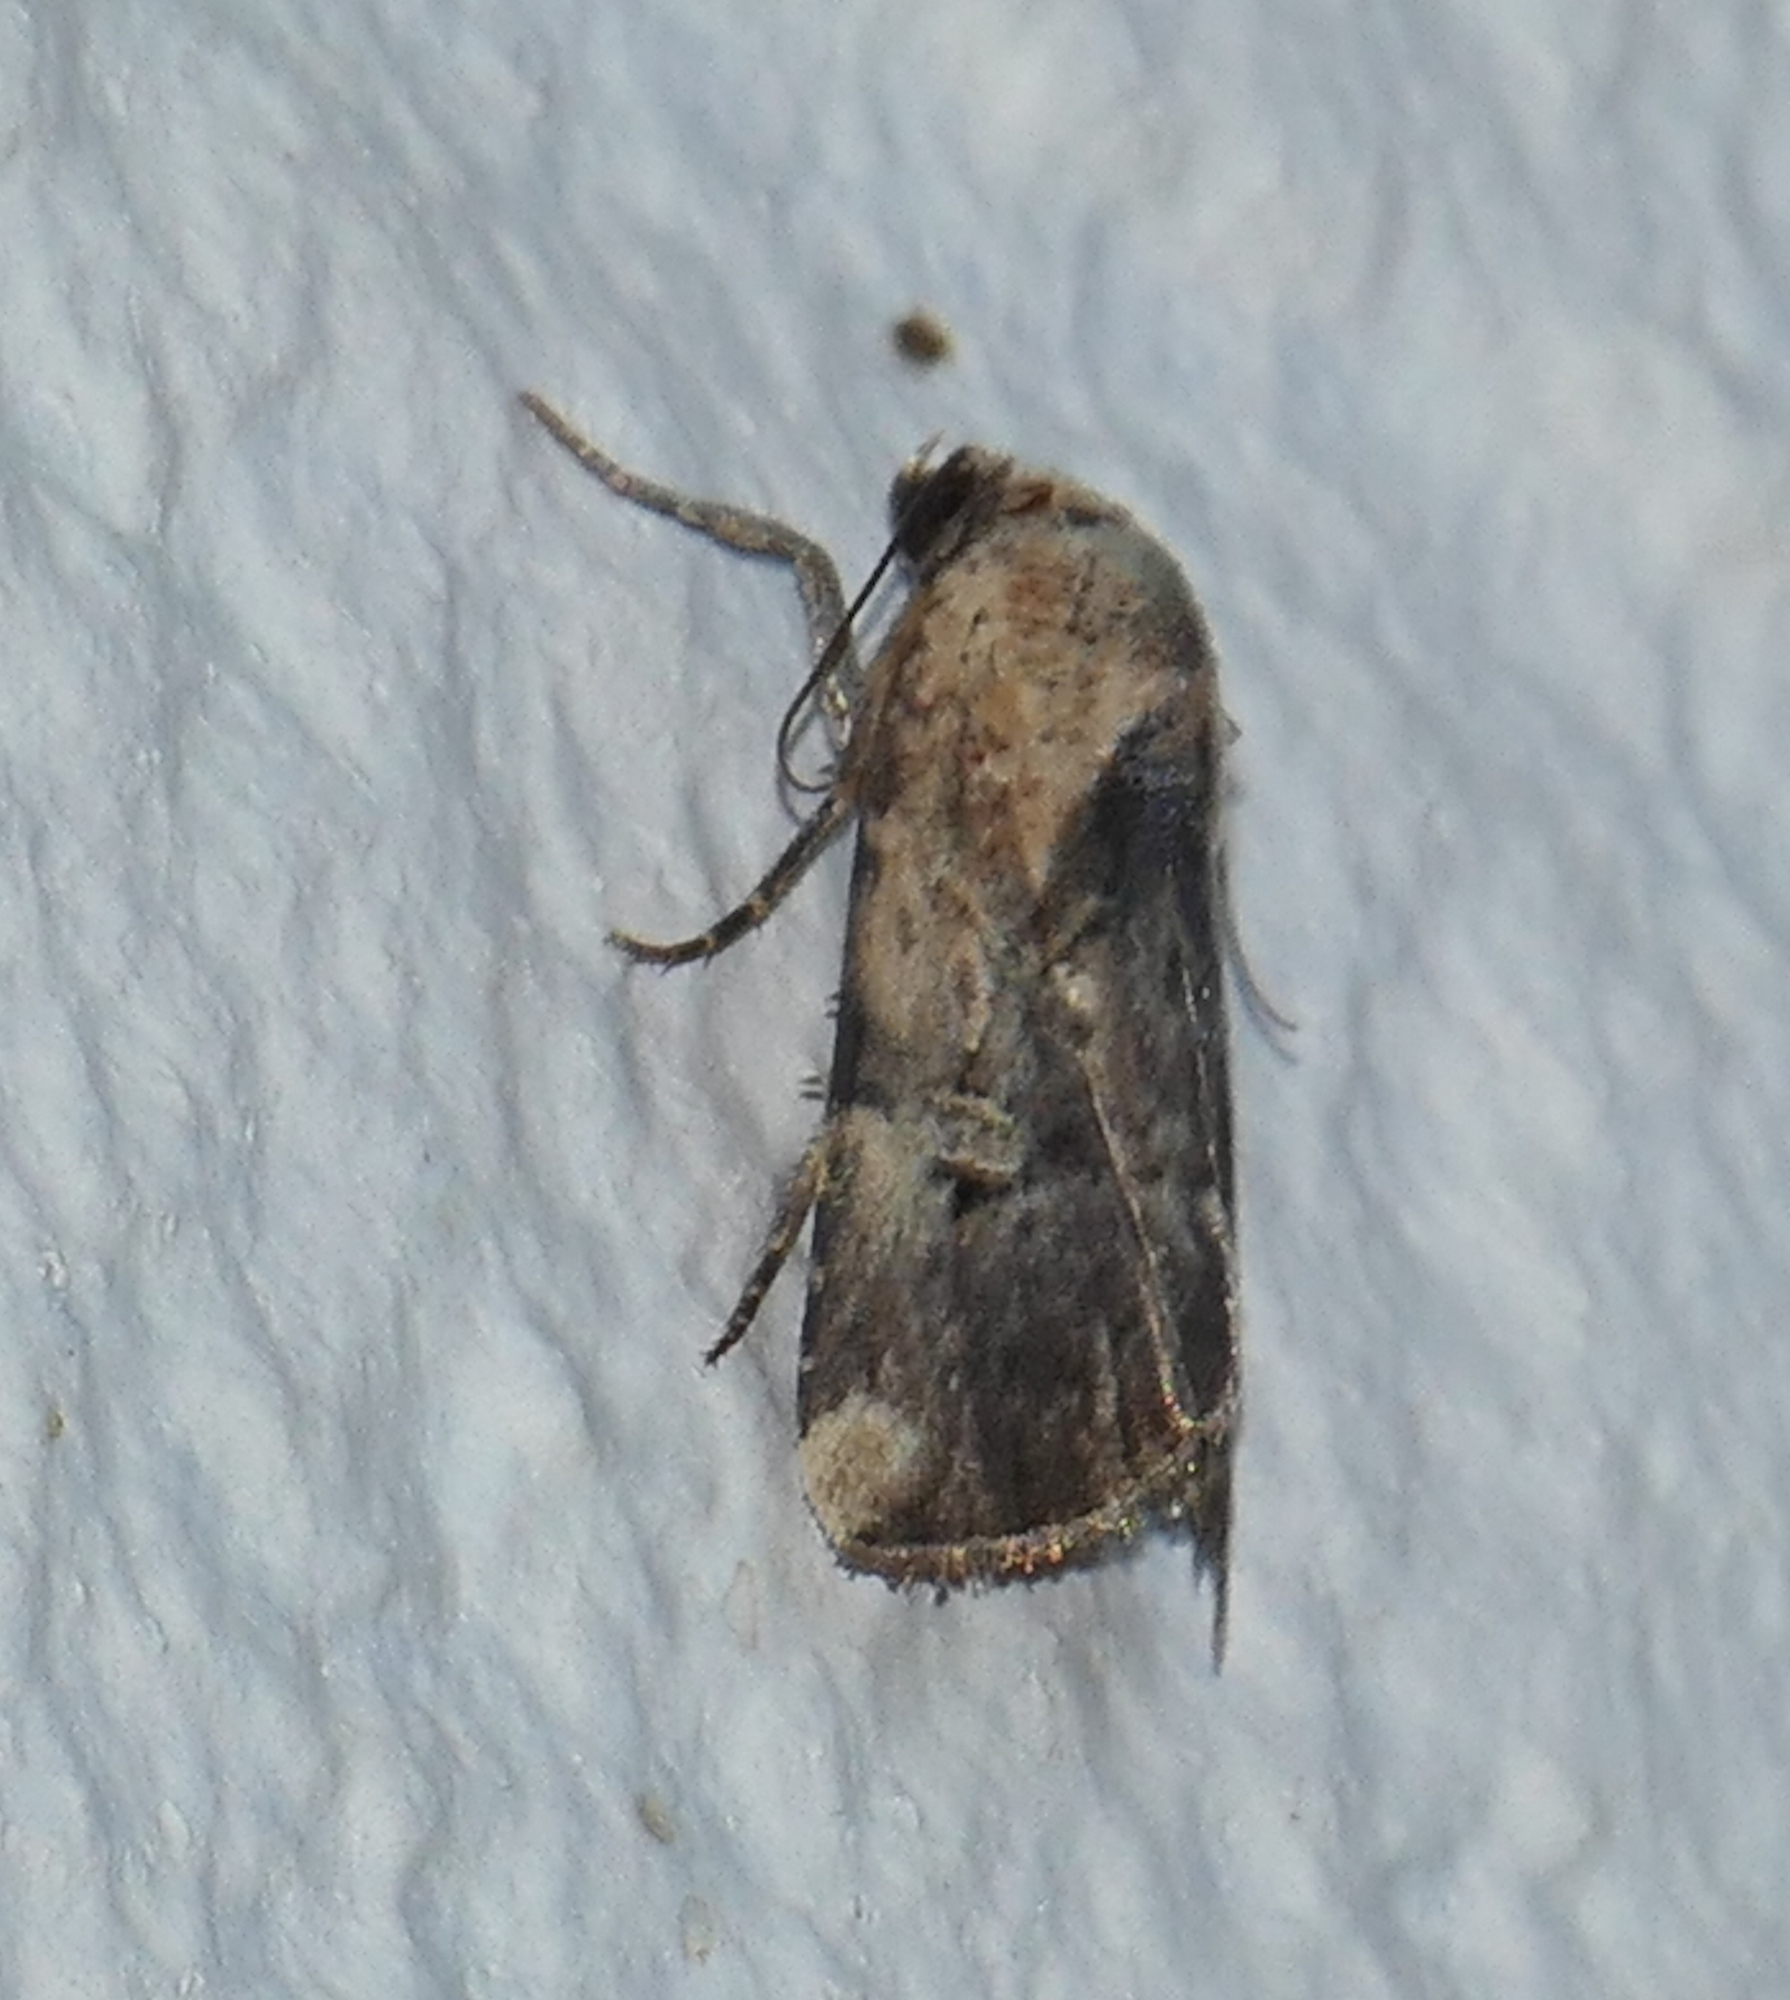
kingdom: Animalia
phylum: Arthropoda
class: Insecta
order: Lepidoptera
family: Noctuidae
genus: Elaphria
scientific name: Elaphria chalcedonia
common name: Chalcedony midget
